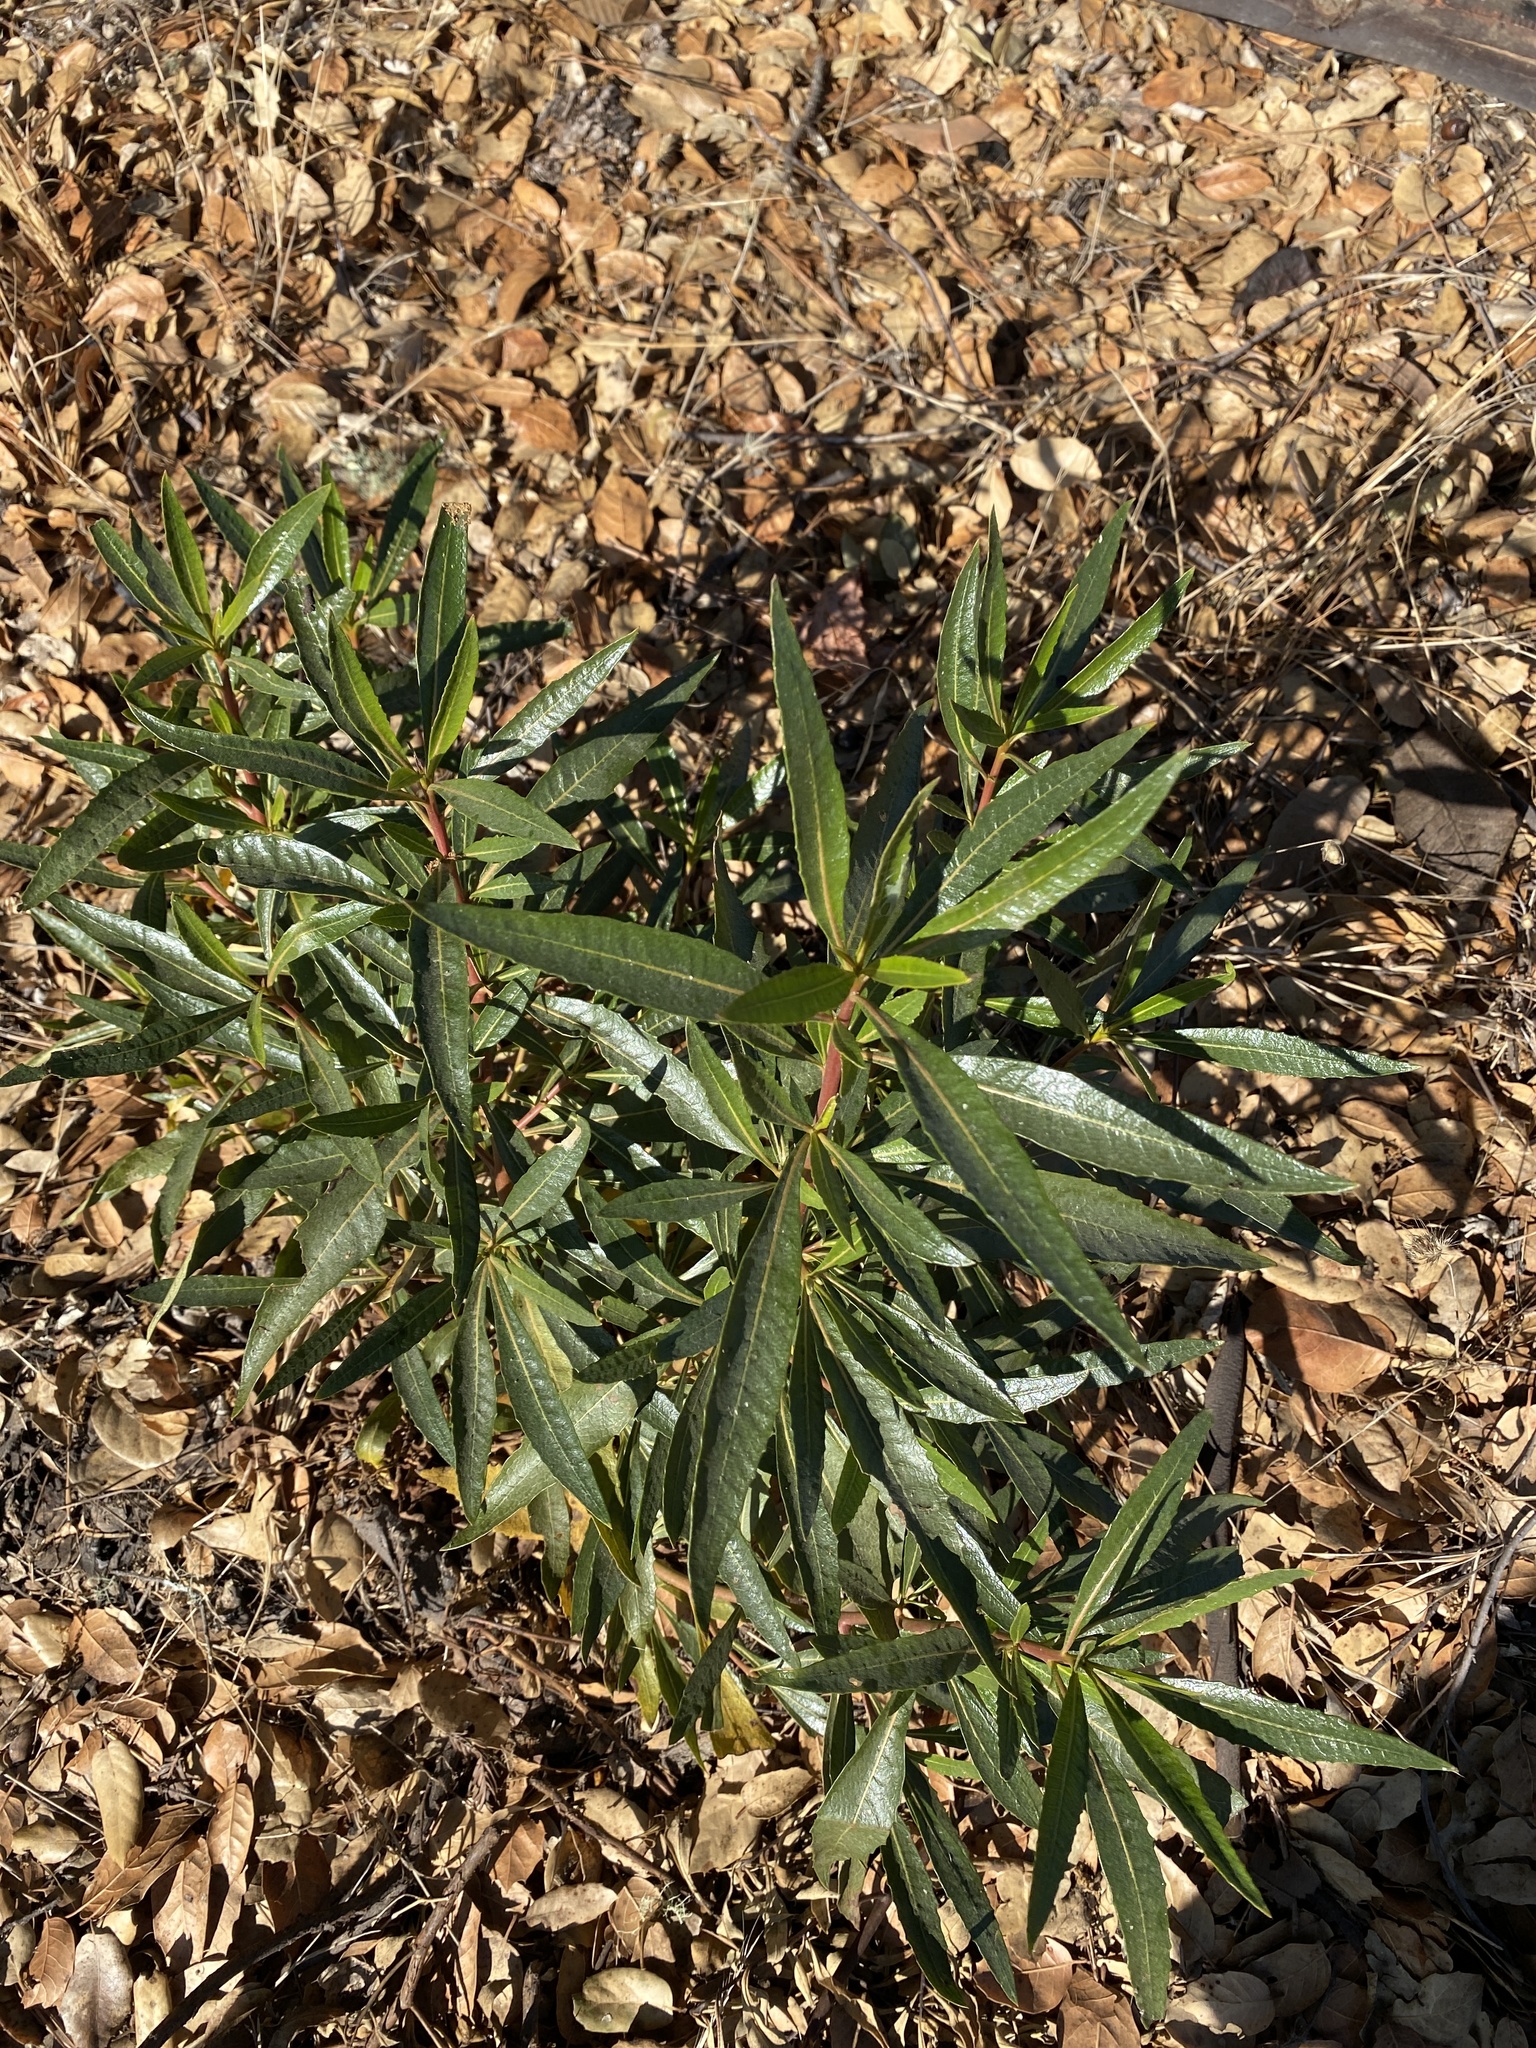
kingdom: Plantae
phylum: Tracheophyta
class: Magnoliopsida
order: Boraginales
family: Namaceae
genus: Eriodictyon
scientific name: Eriodictyon californicum
